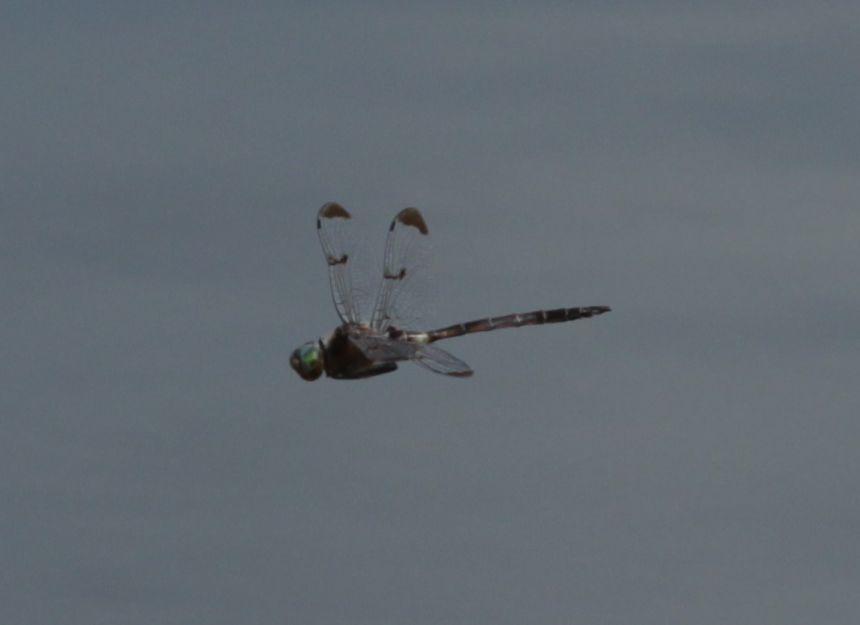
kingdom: Animalia
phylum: Arthropoda
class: Insecta
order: Odonata
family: Corduliidae
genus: Epitheca
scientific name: Epitheca princeps
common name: Prince baskettail
